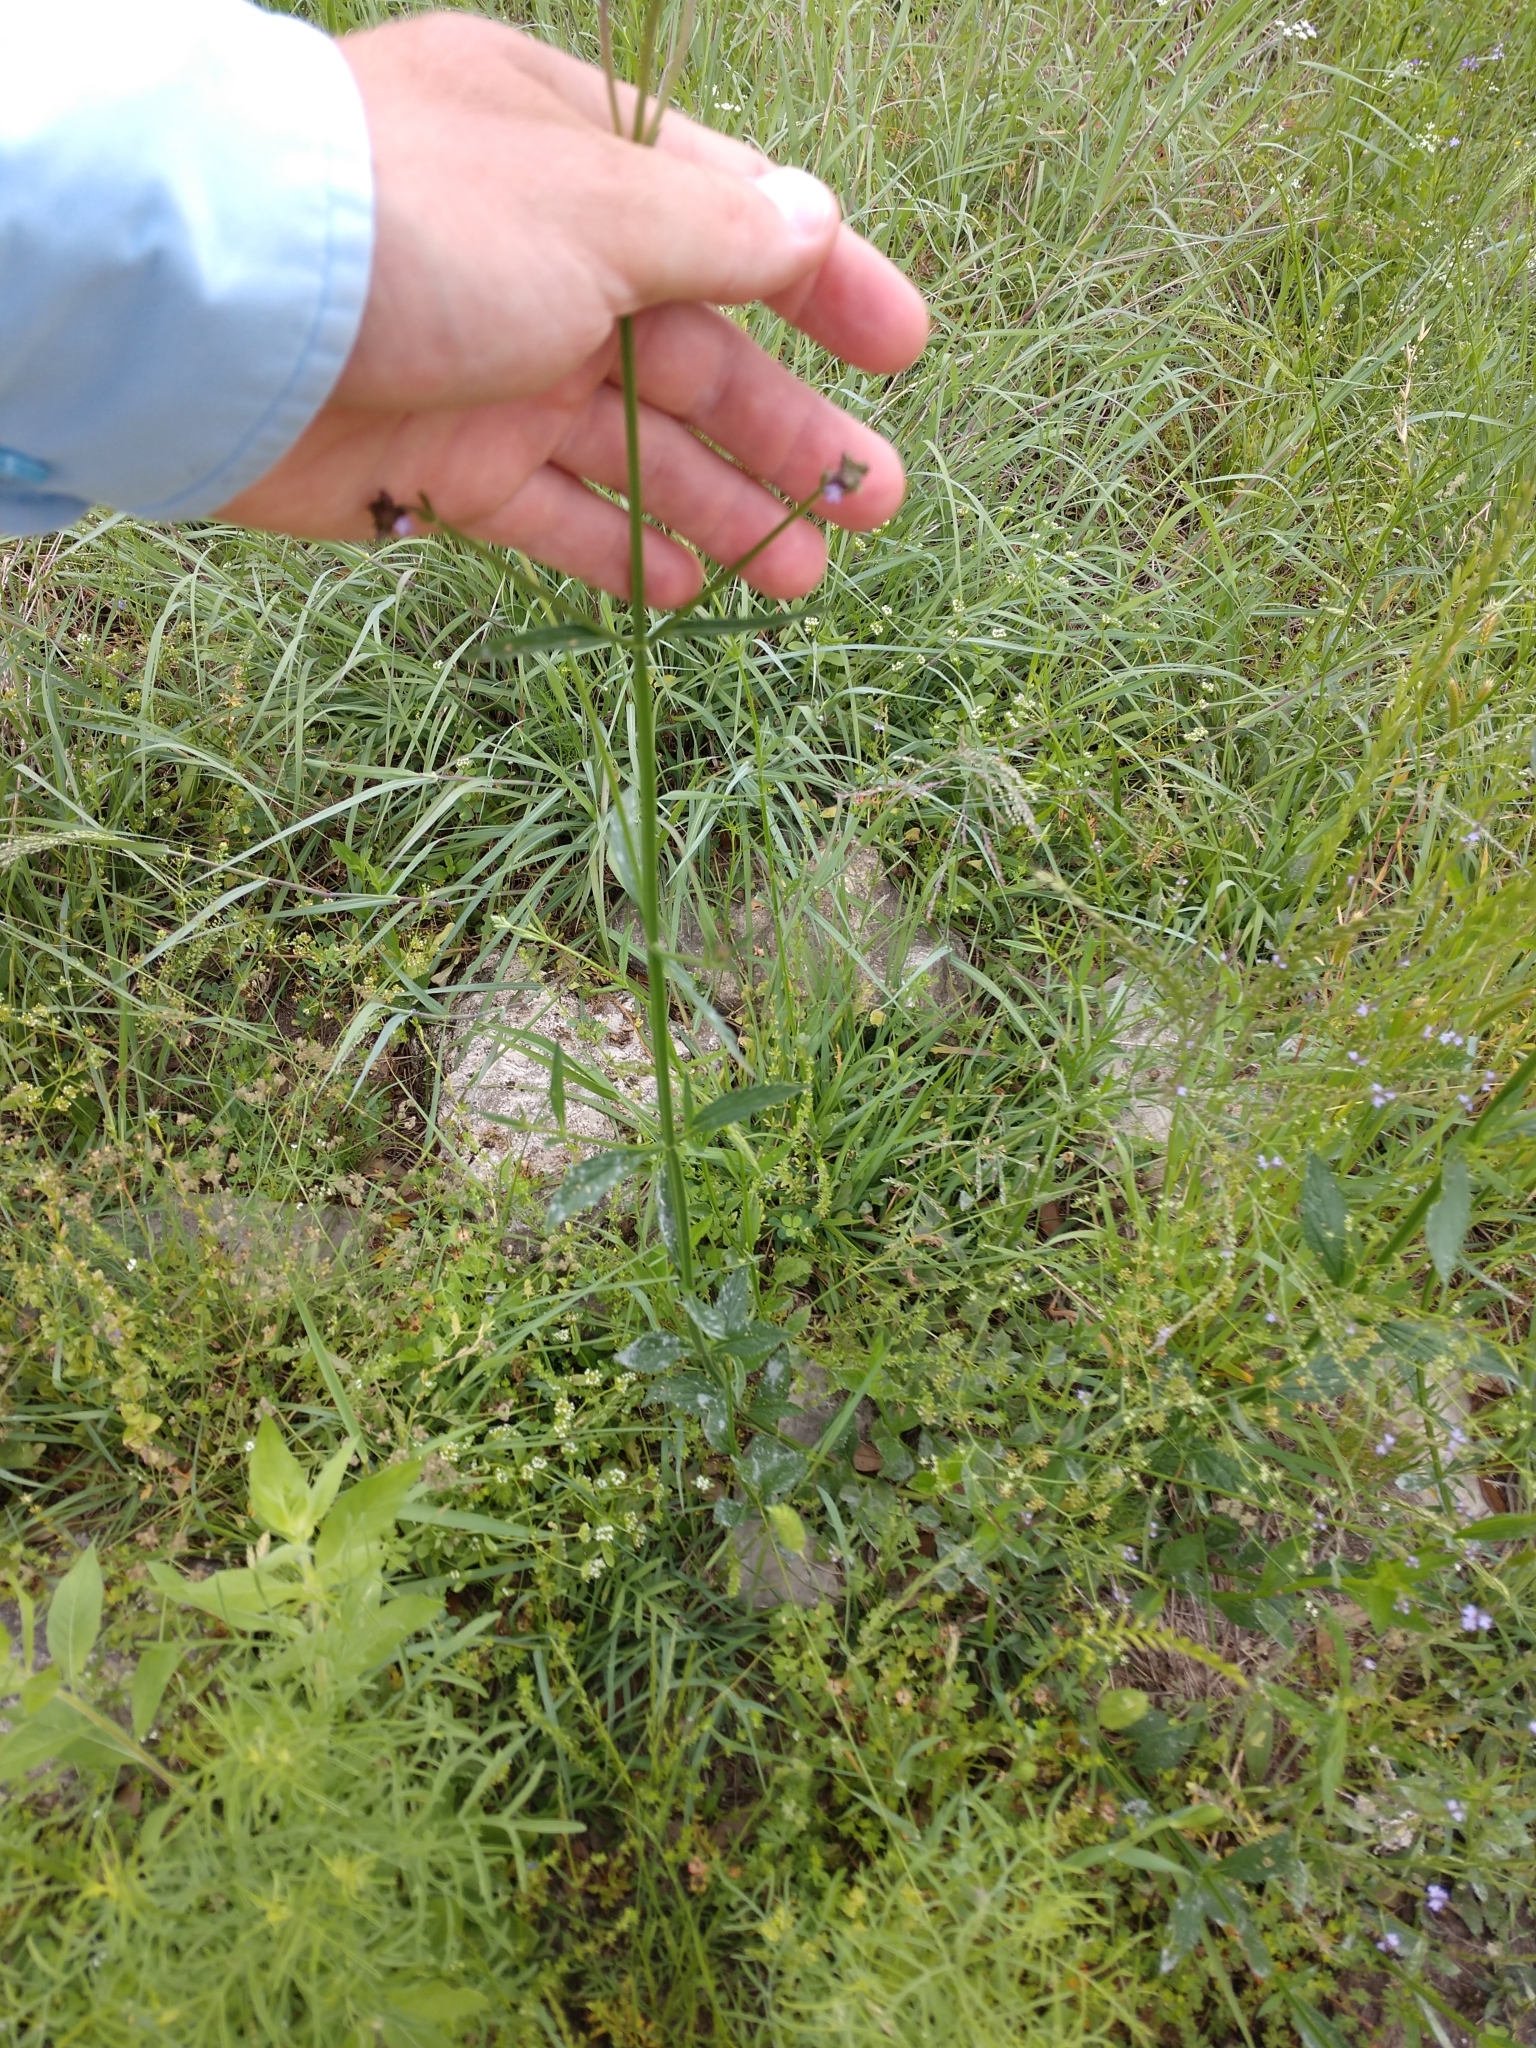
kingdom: Plantae
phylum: Tracheophyta
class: Magnoliopsida
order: Lamiales
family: Verbenaceae
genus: Verbena
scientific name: Verbena brasiliensis
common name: Brazilian vervain
